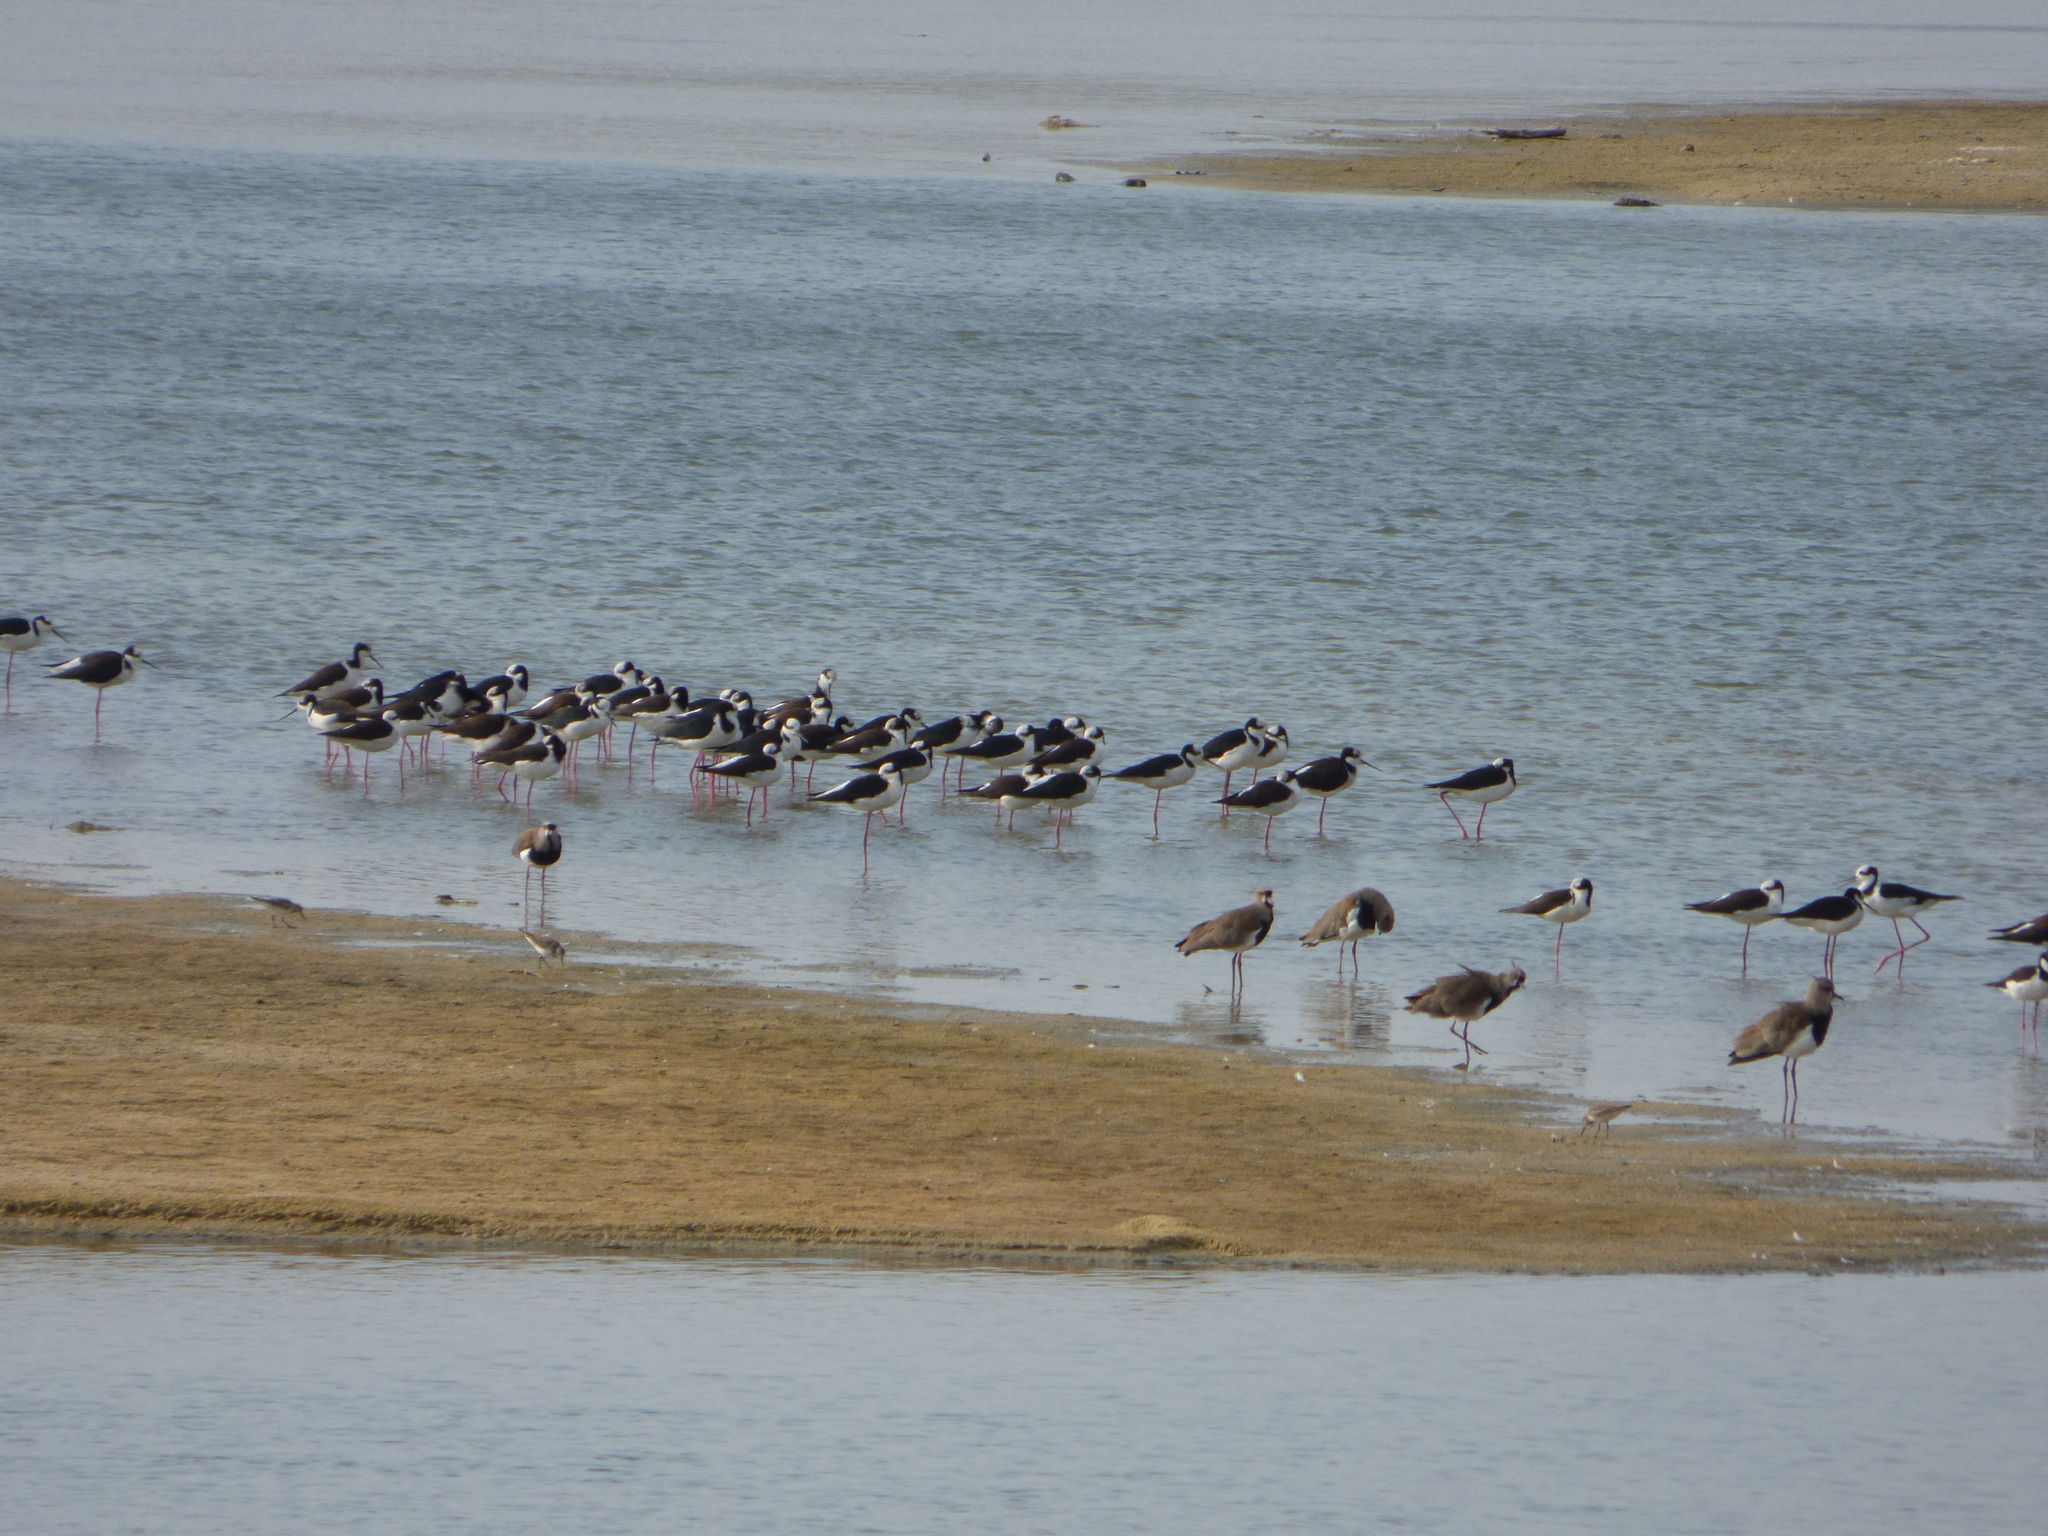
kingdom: Animalia
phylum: Chordata
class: Aves
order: Charadriiformes
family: Recurvirostridae
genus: Himantopus
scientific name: Himantopus mexicanus
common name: Black-necked stilt
